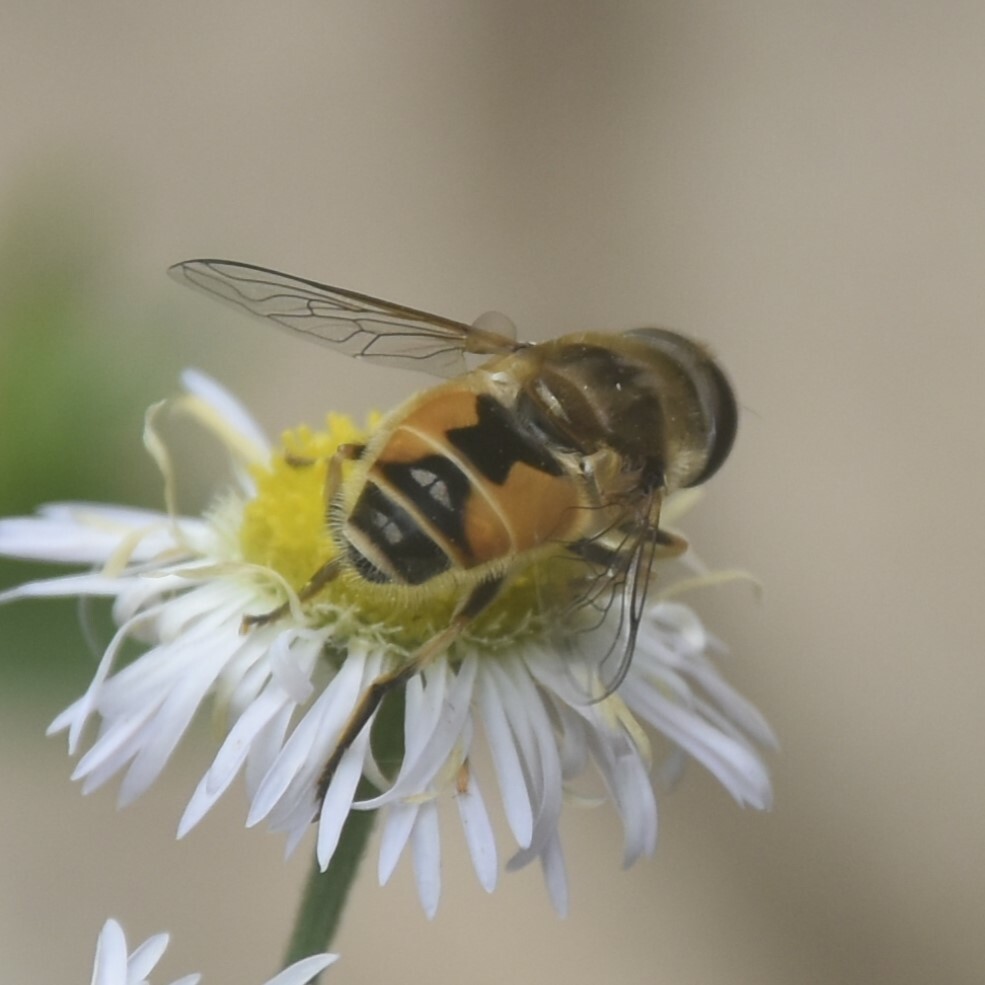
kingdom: Animalia
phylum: Arthropoda
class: Insecta
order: Diptera
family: Syrphidae
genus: Eristalis
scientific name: Eristalis arbustorum
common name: Hover fly
